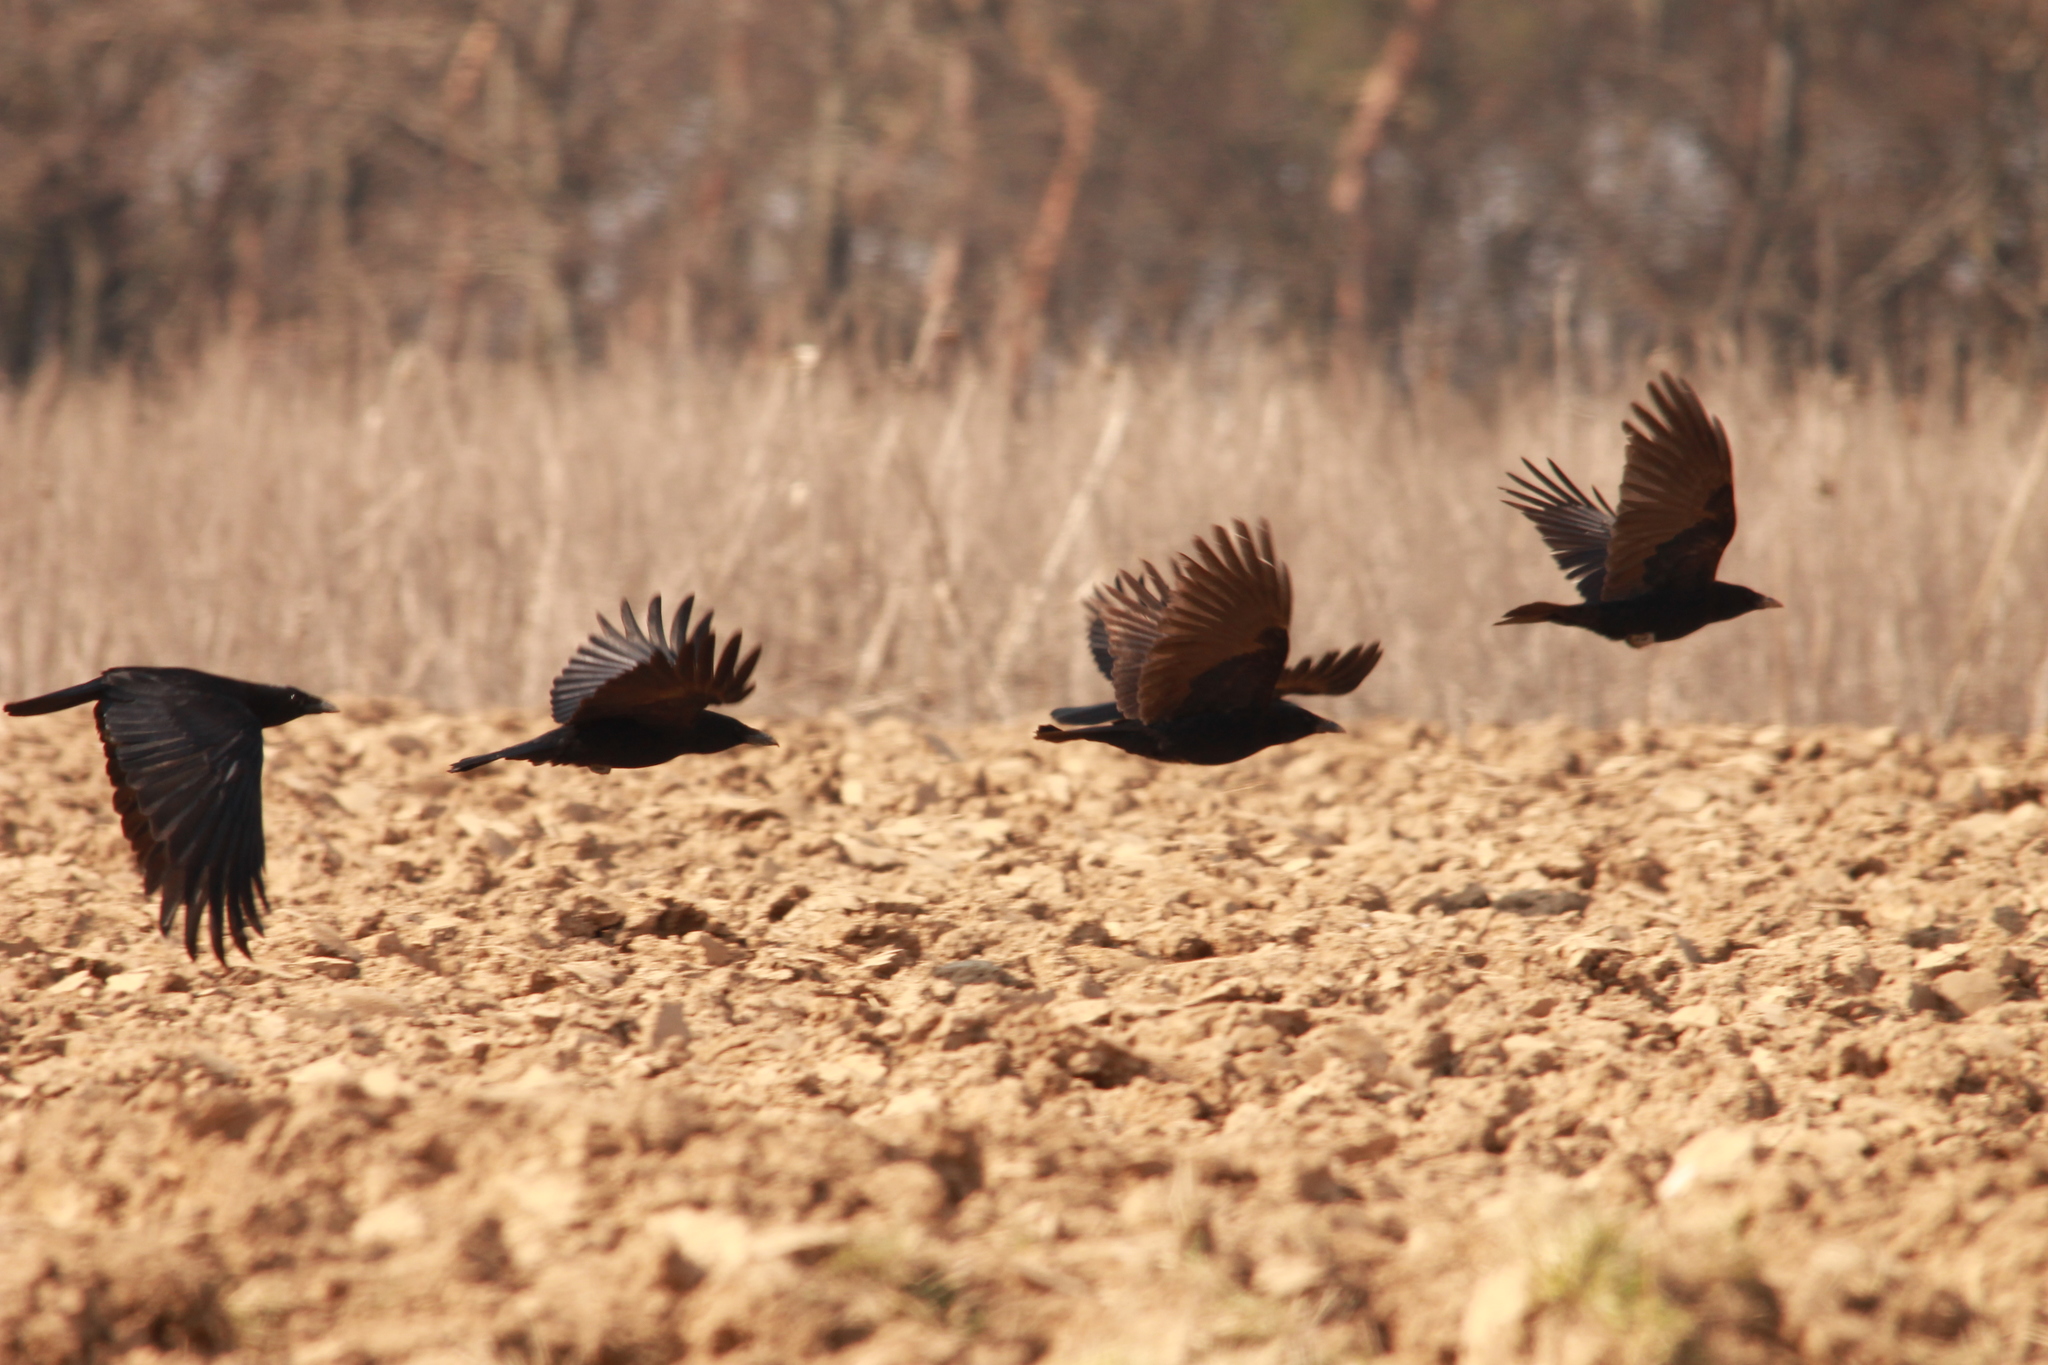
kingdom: Animalia
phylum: Chordata
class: Aves
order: Passeriformes
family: Corvidae
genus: Corvus
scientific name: Corvus corone
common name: Carrion crow
